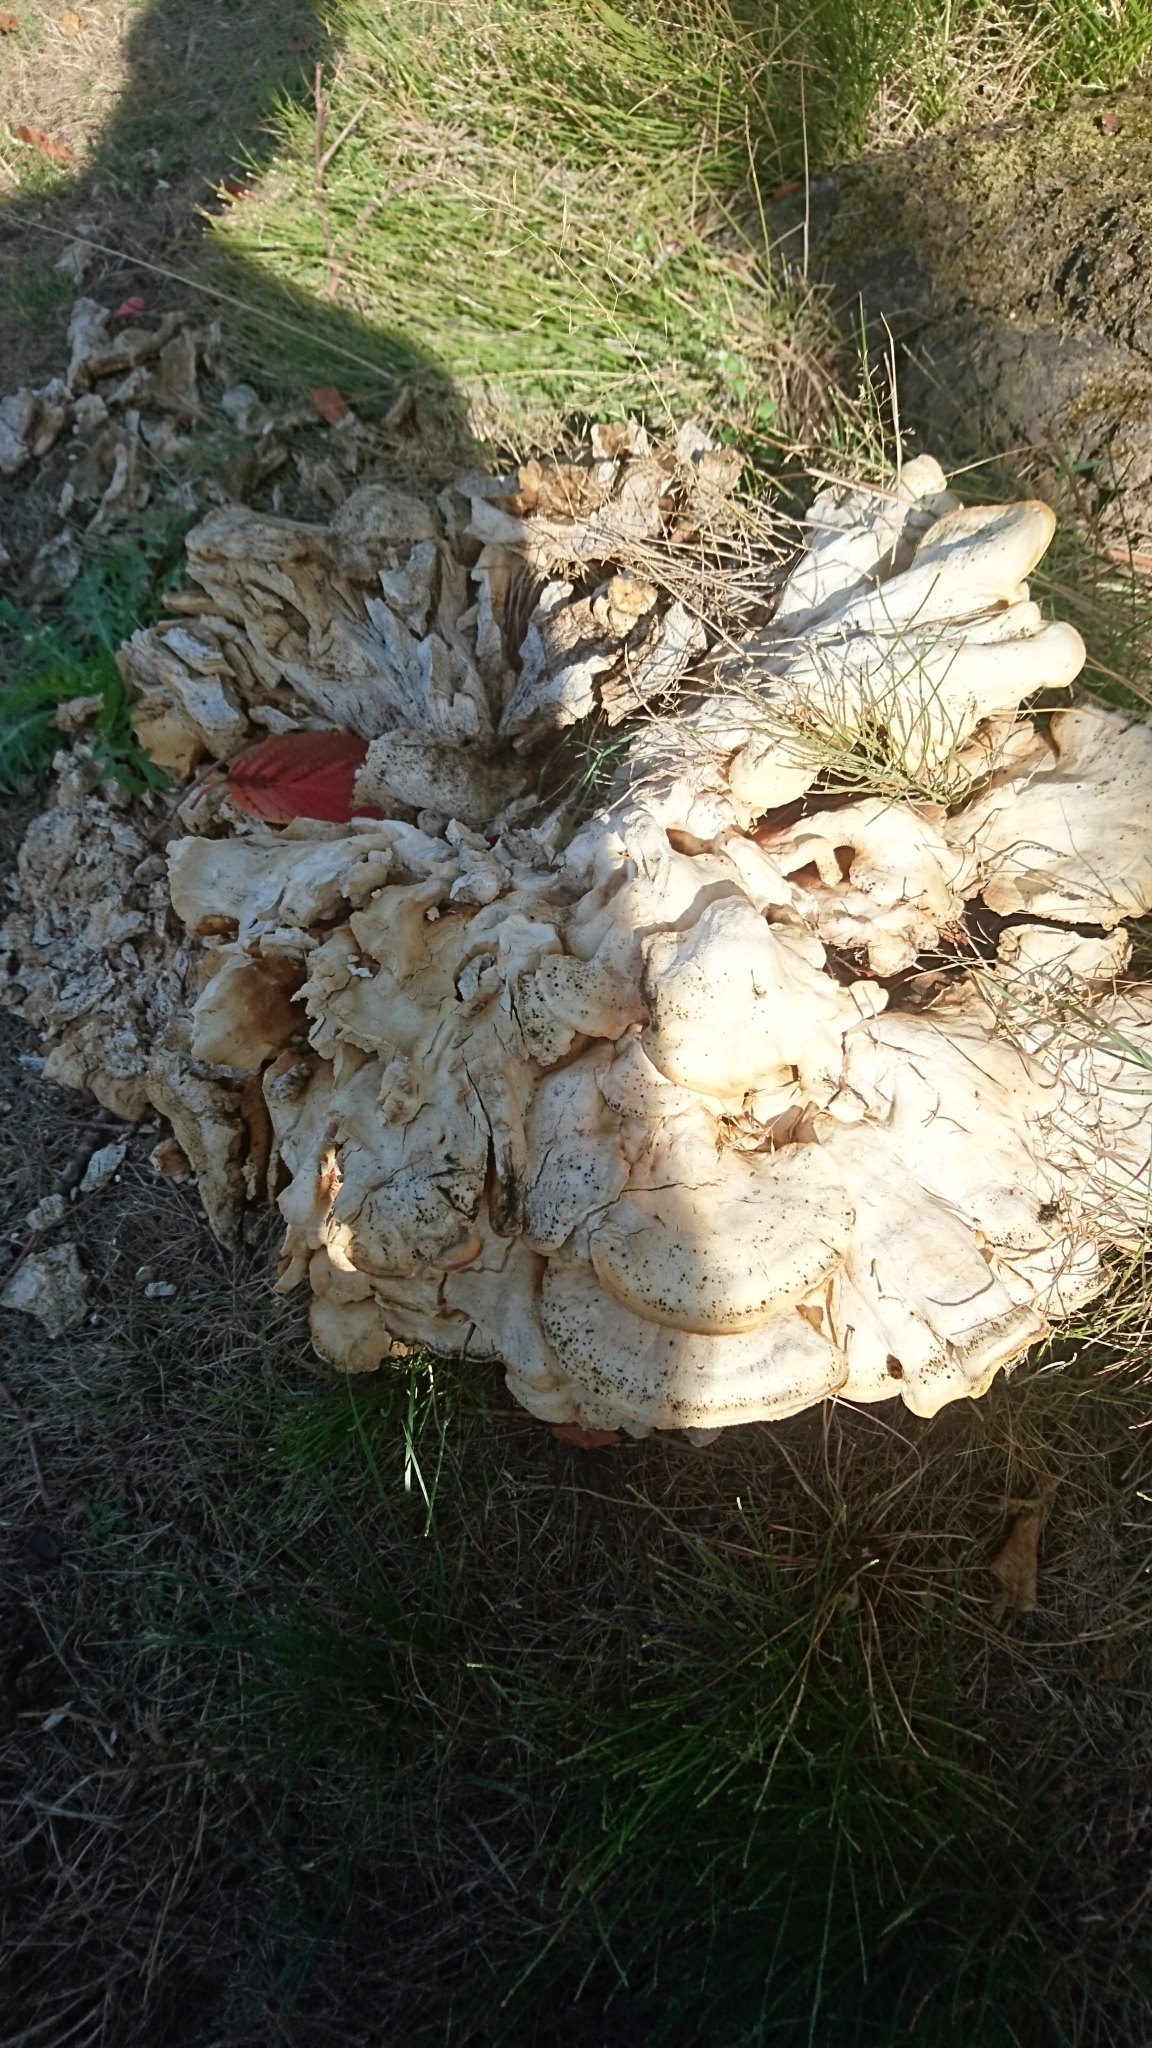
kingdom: Fungi
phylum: Basidiomycota
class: Agaricomycetes
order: Polyporales
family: Laetiporaceae
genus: Laetiporus
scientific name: Laetiporus sulphureus
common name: Chicken of the woods
